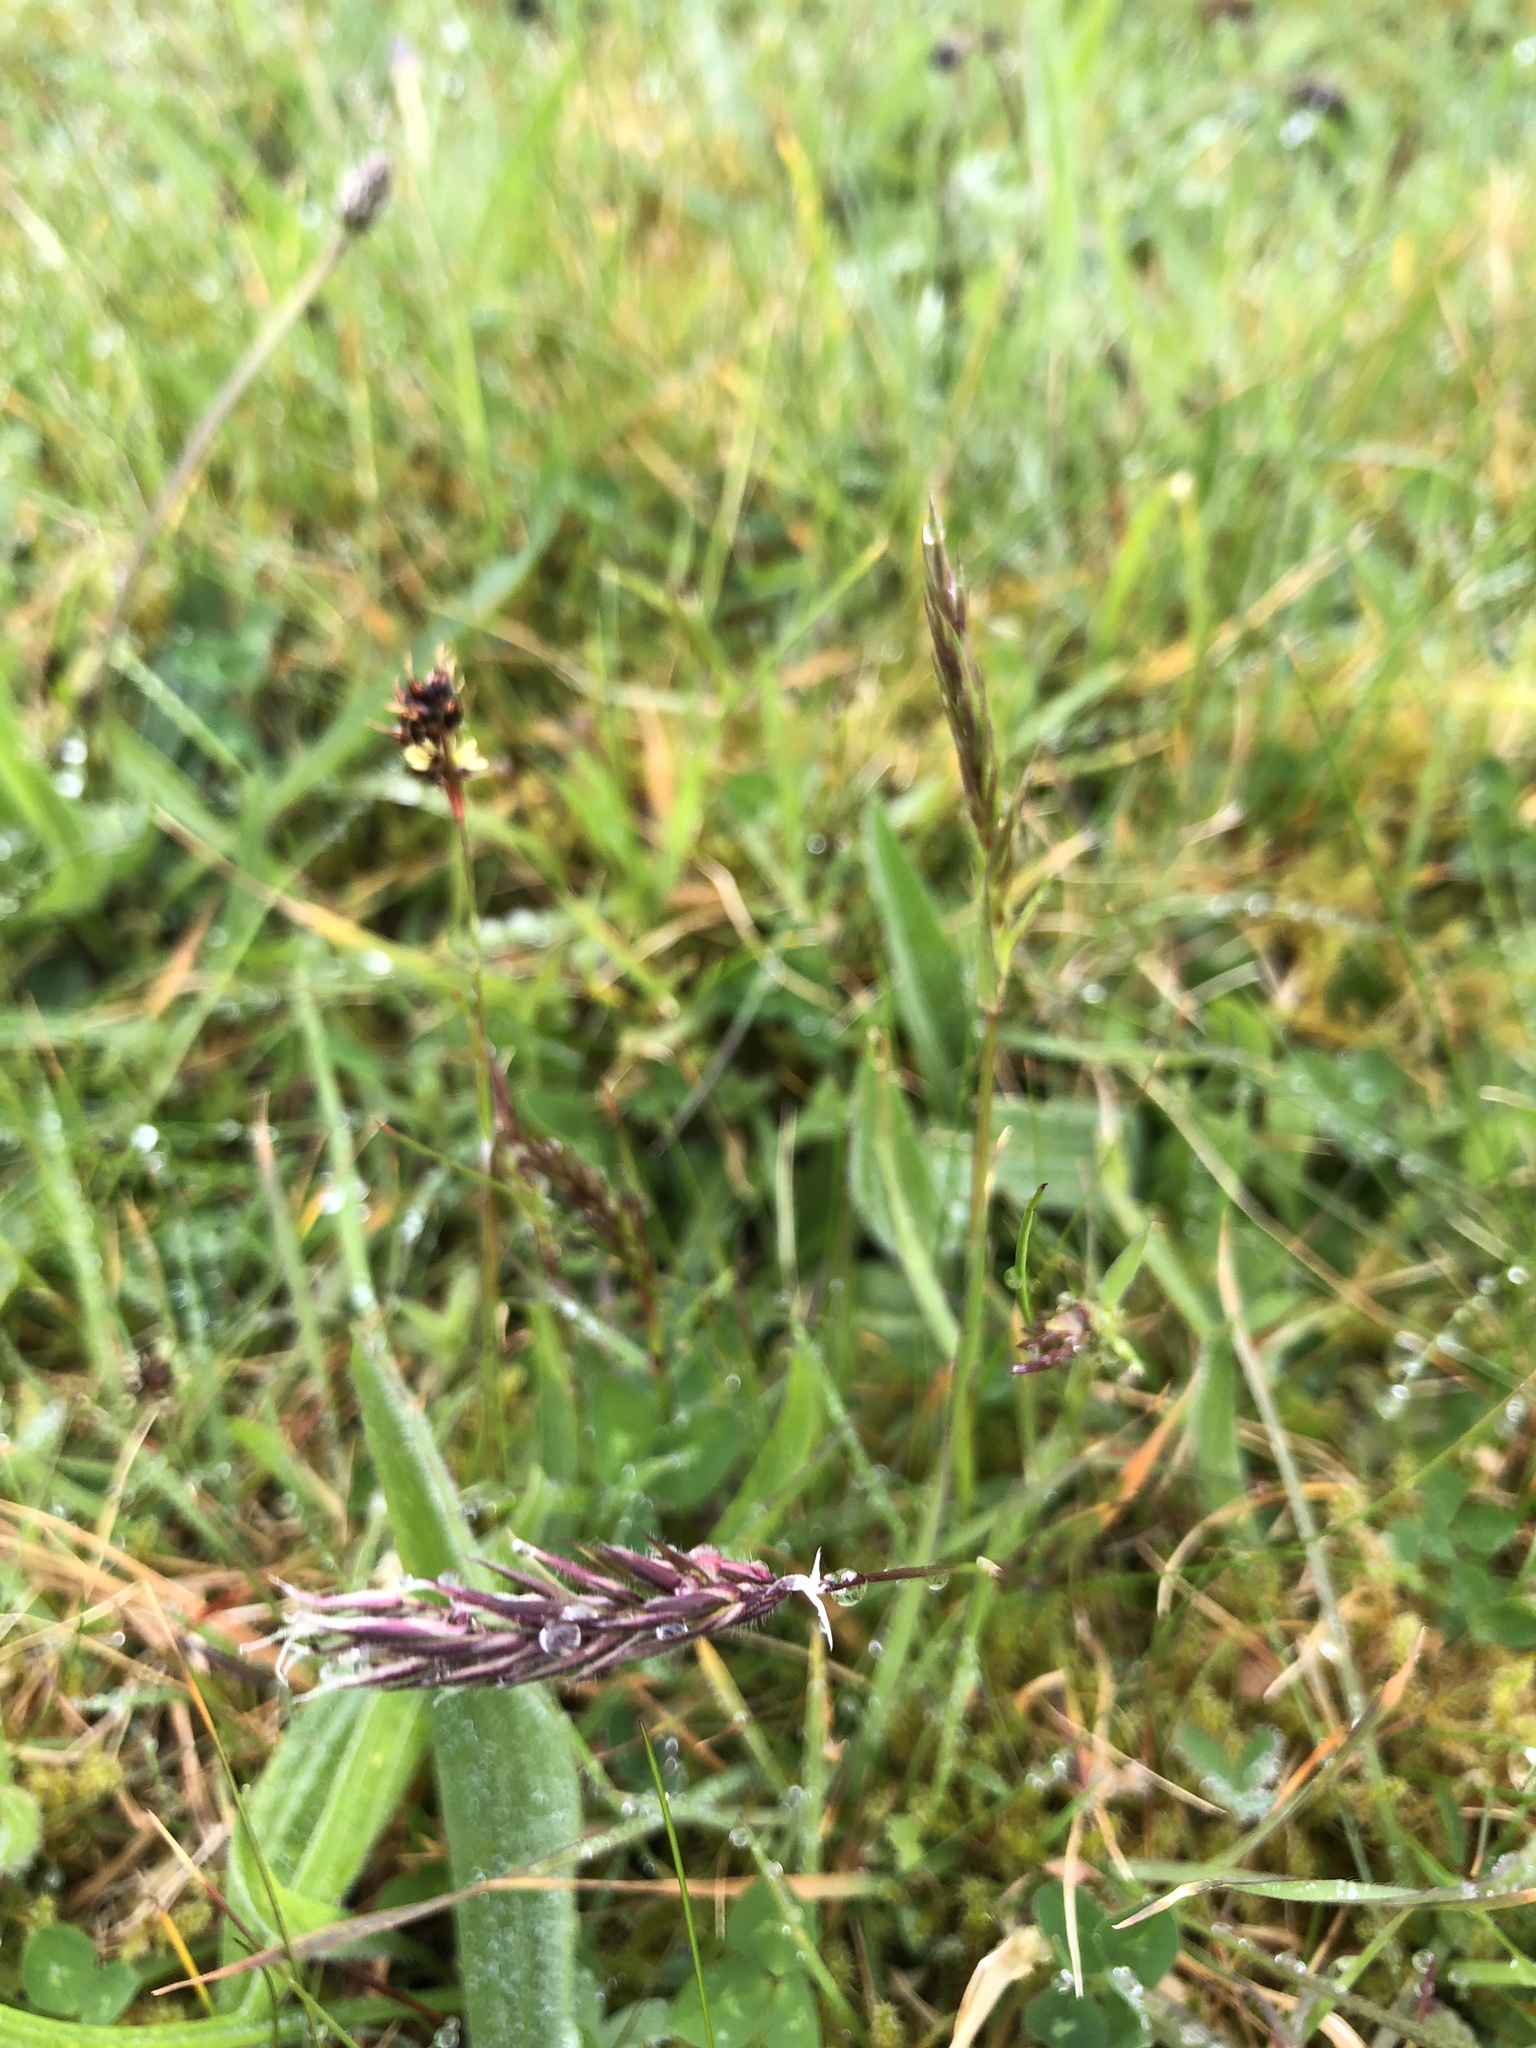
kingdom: Plantae
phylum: Tracheophyta
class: Liliopsida
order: Poales
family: Poaceae
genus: Anthoxanthum
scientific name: Anthoxanthum odoratum
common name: Sweet vernalgrass
